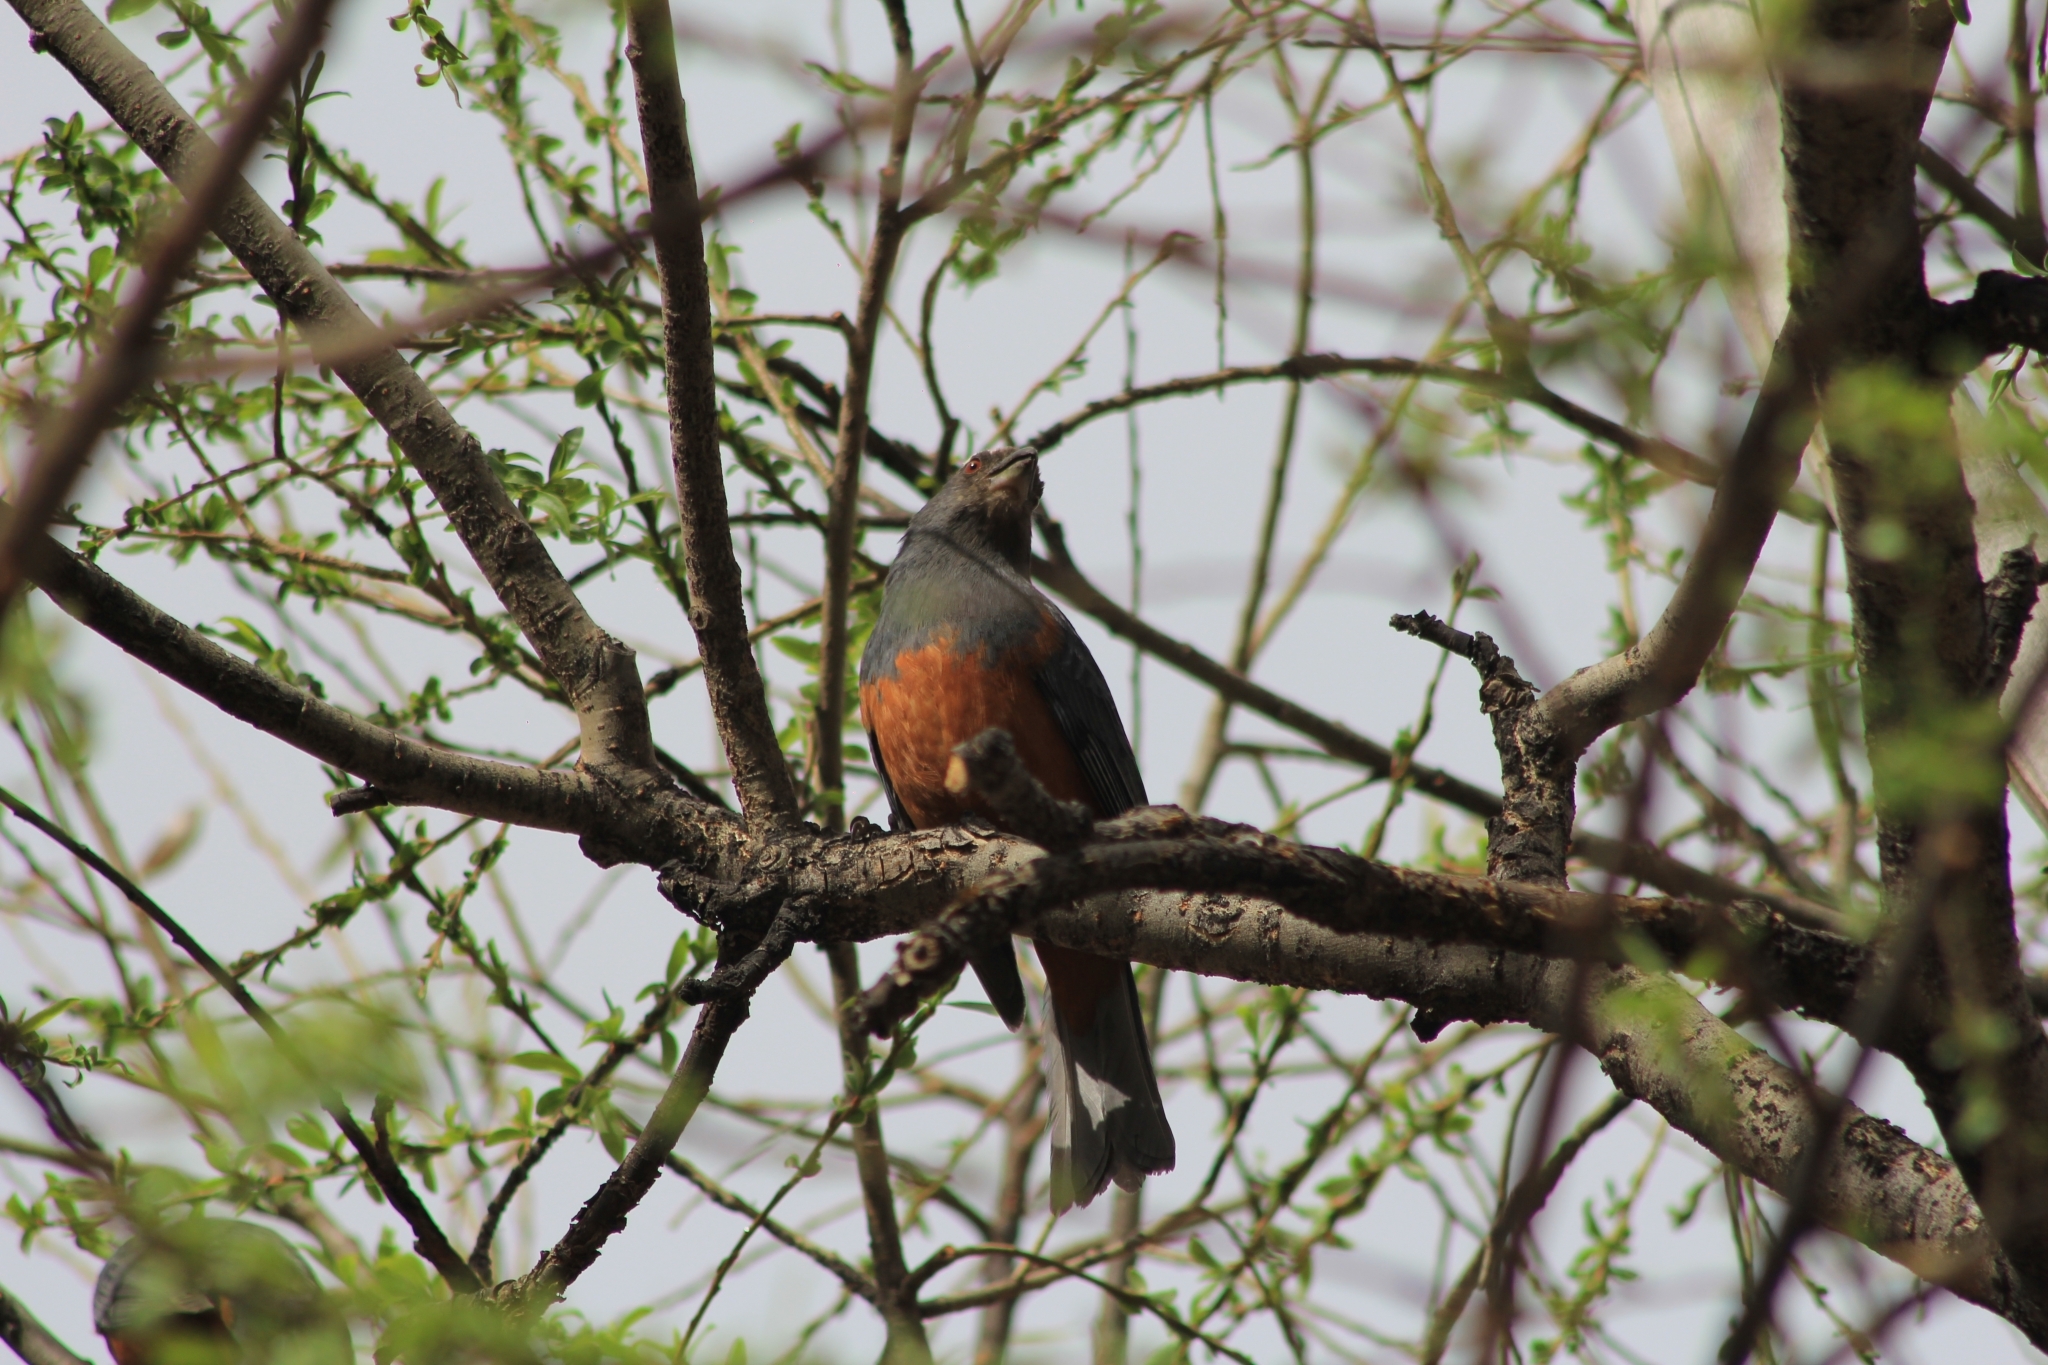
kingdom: Animalia
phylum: Chordata
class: Aves
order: Passeriformes
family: Thraupidae
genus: Pseudosaltator
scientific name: Pseudosaltator rufiventris
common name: Rufous-bellied mountain-tanager
